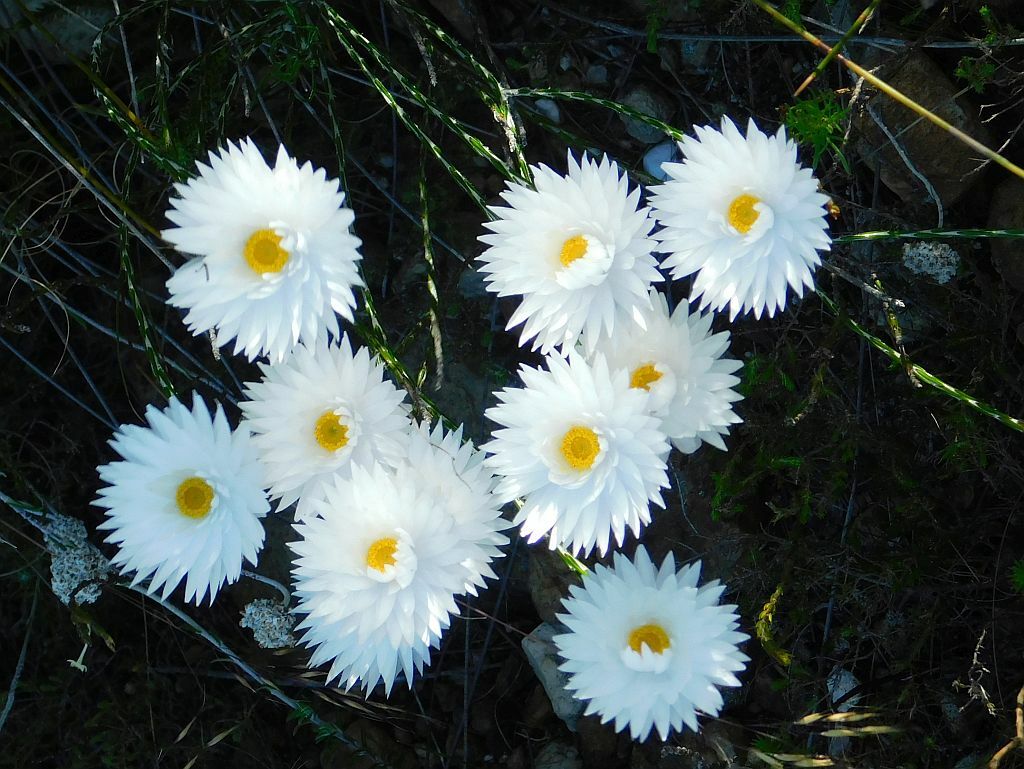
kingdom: Plantae
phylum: Tracheophyta
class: Magnoliopsida
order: Asterales
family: Asteraceae
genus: Edmondia
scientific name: Edmondia sesamoides
